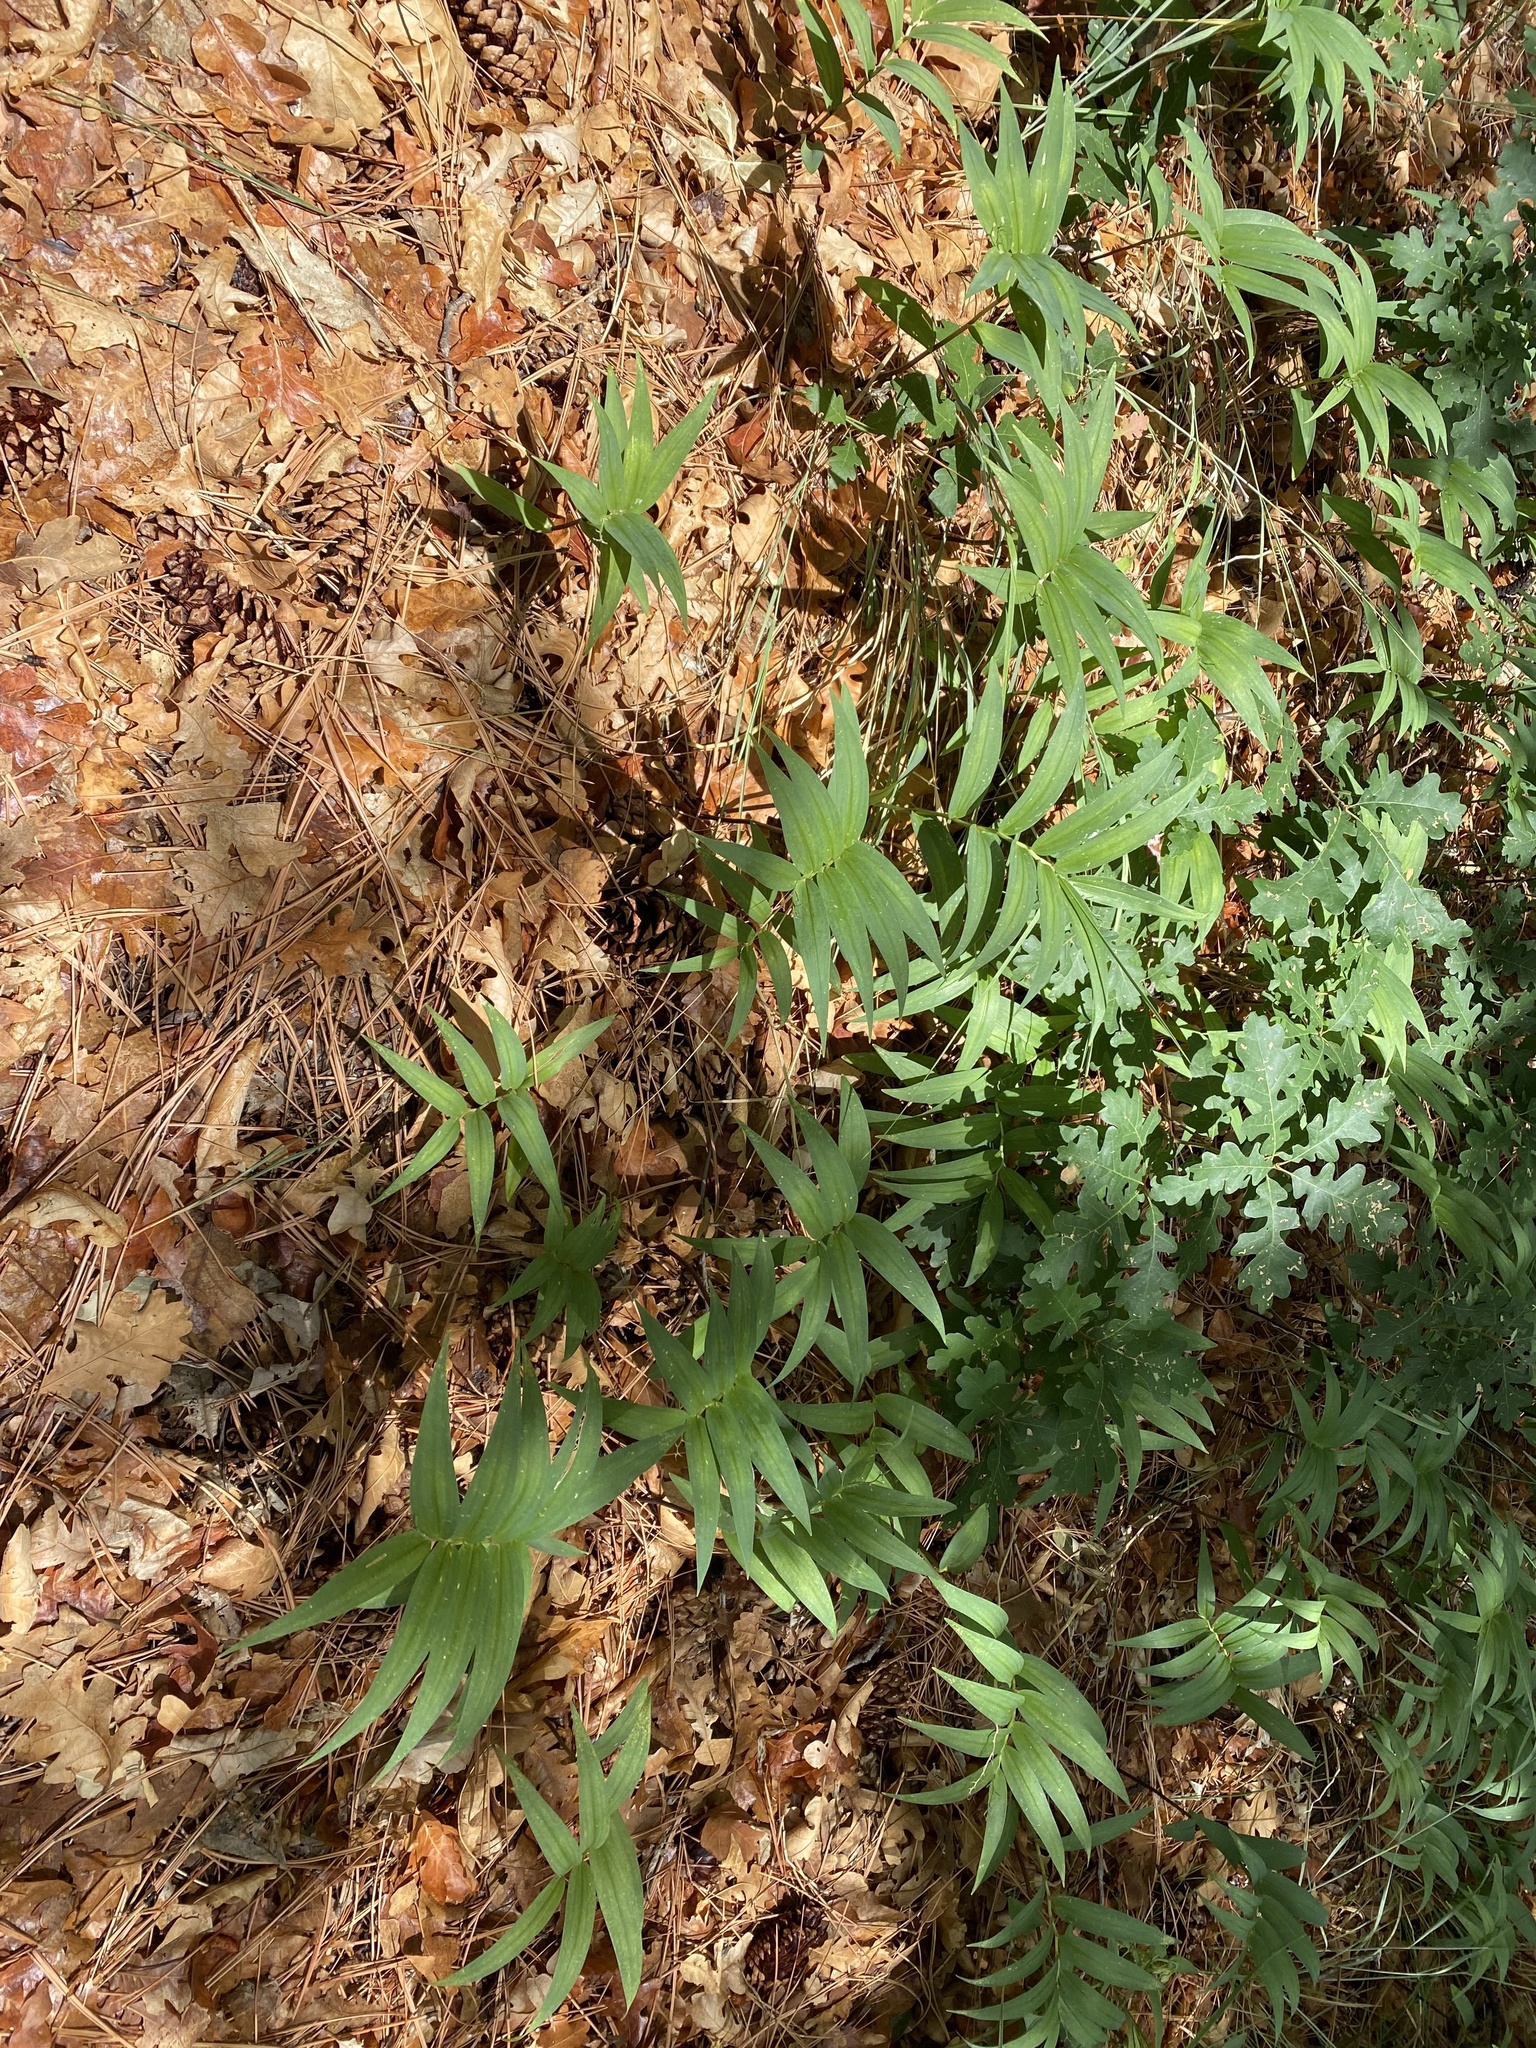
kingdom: Plantae
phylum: Tracheophyta
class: Liliopsida
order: Asparagales
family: Asparagaceae
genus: Maianthemum
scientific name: Maianthemum stellatum
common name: Little false solomon's seal
